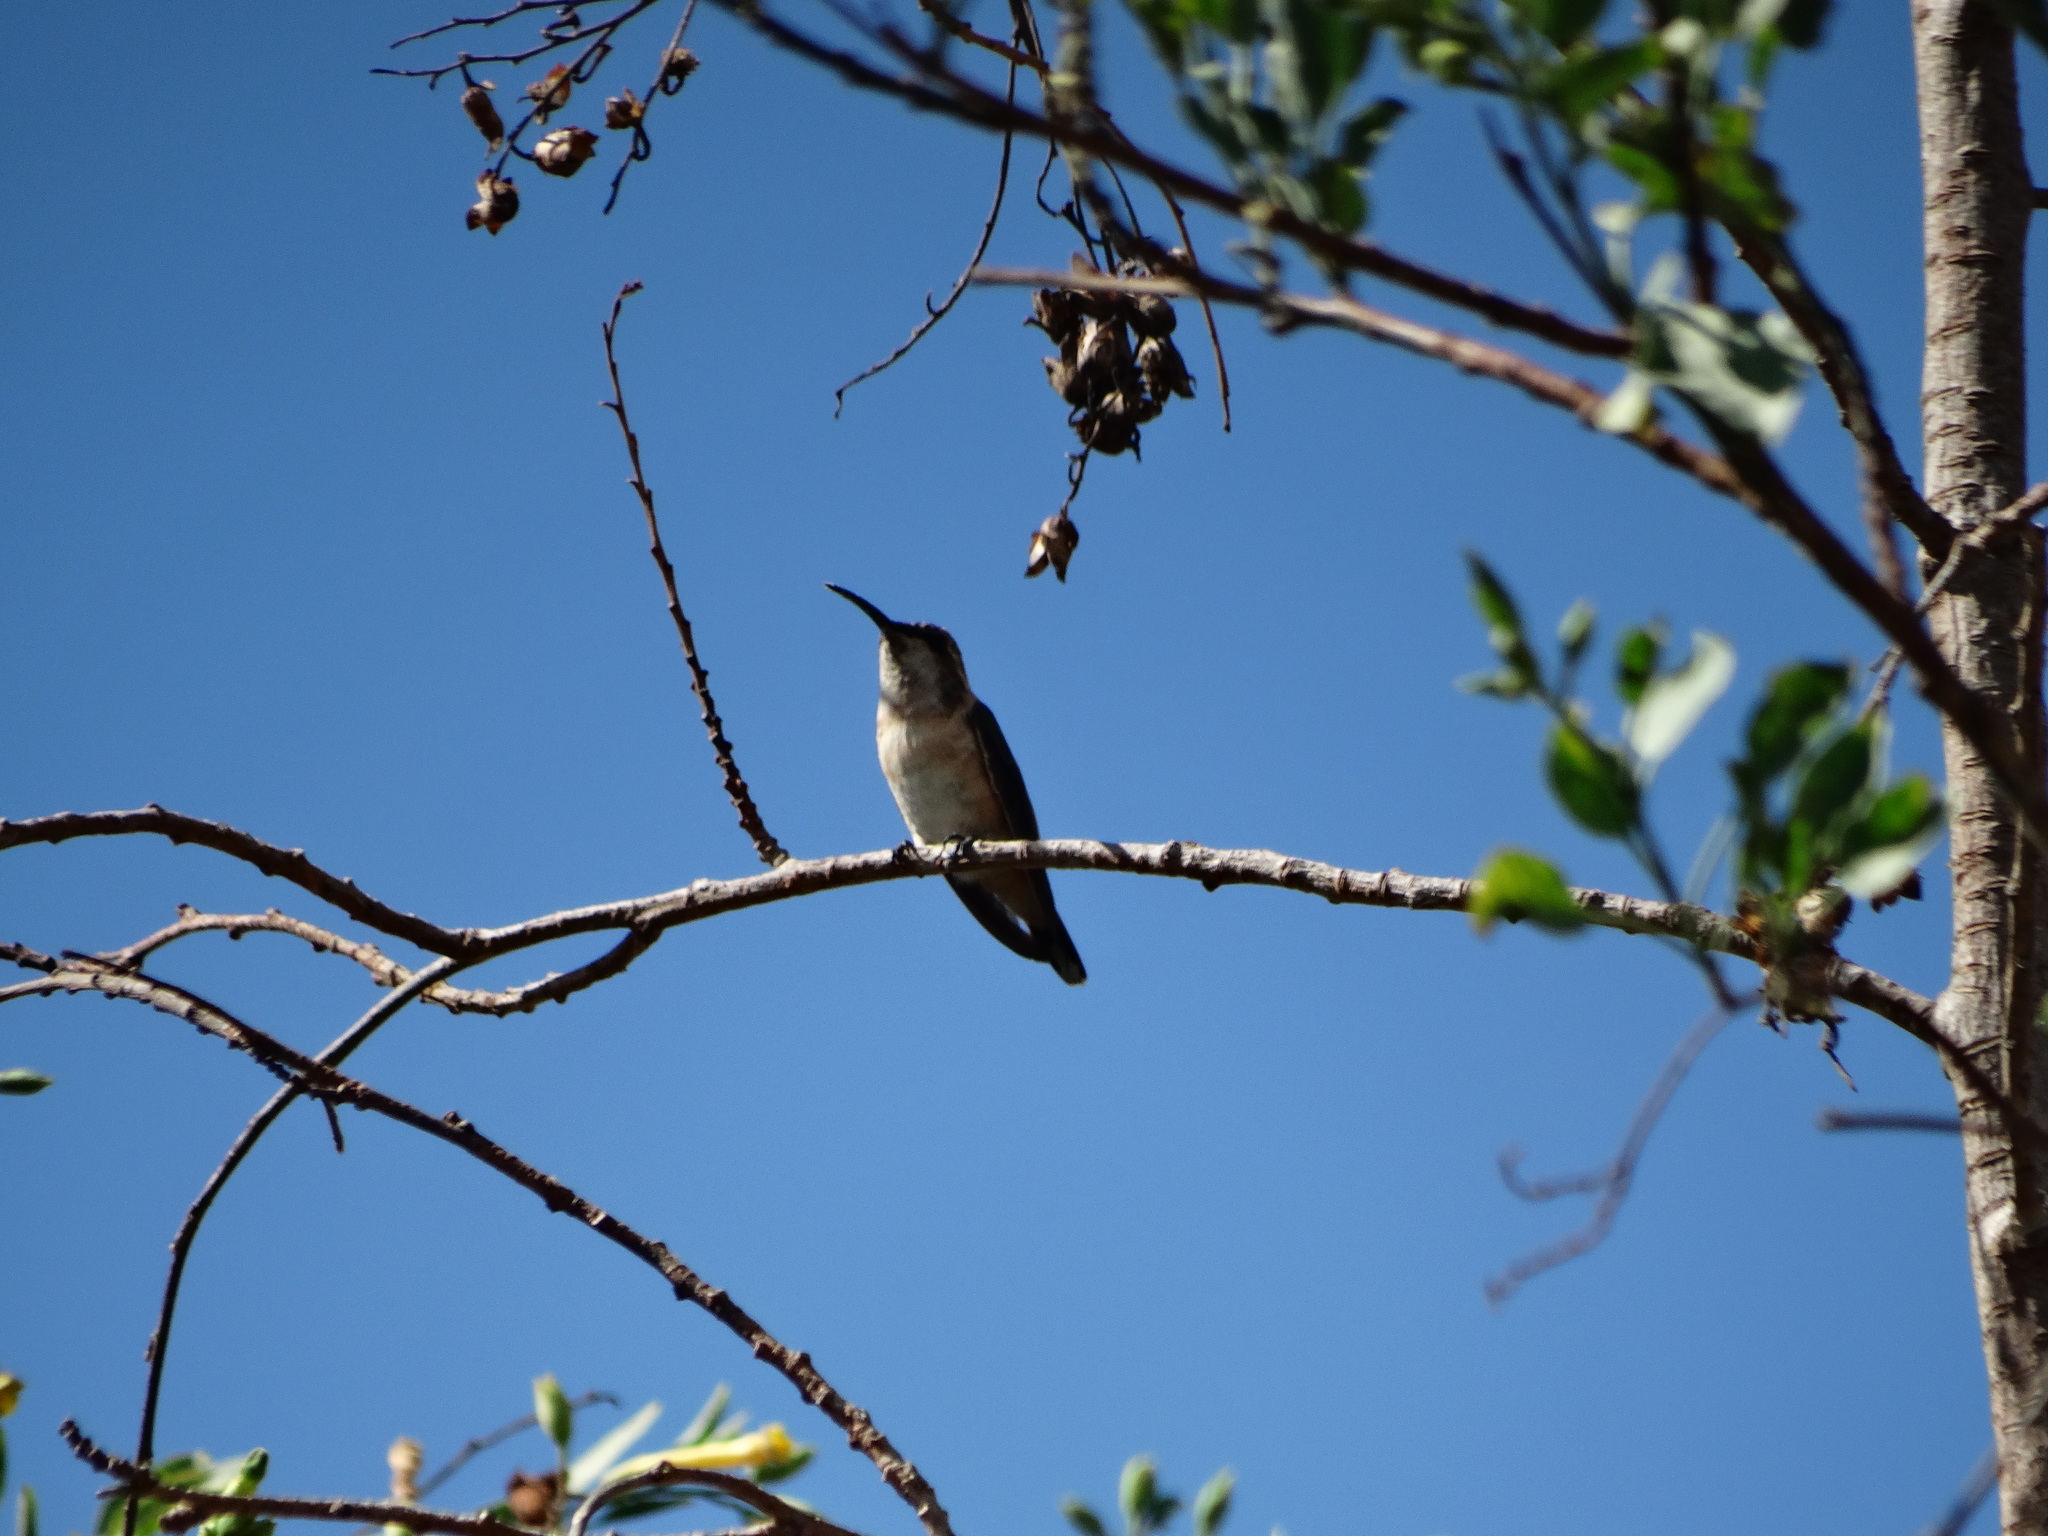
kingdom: Animalia
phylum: Chordata
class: Aves
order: Apodiformes
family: Trochilidae
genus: Calothorax
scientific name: Calothorax lucifer
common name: Lucifer sheartail
